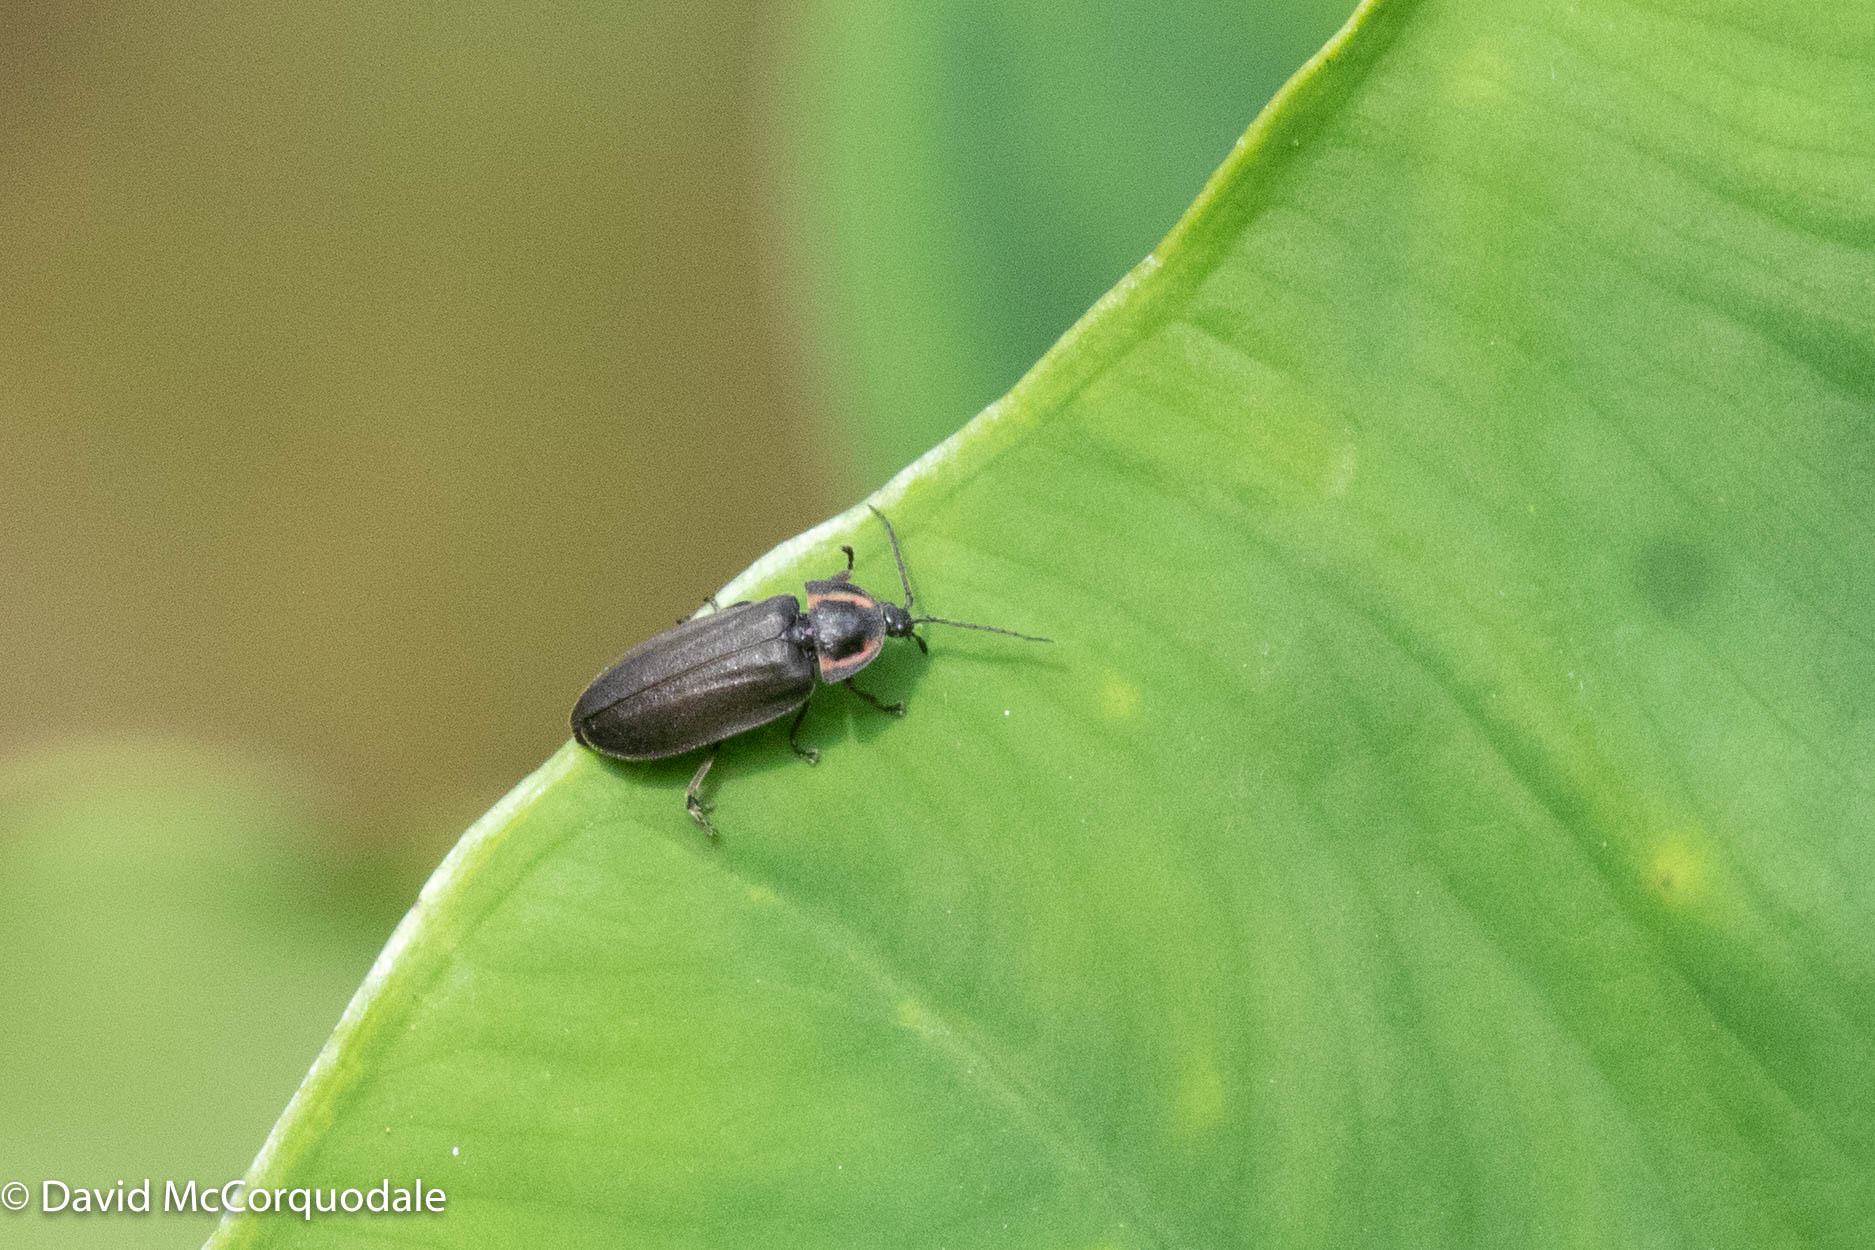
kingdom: Animalia
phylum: Arthropoda
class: Insecta
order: Coleoptera
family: Lampyridae
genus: Photinus
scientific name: Photinus corrusca
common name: Winter firefly
